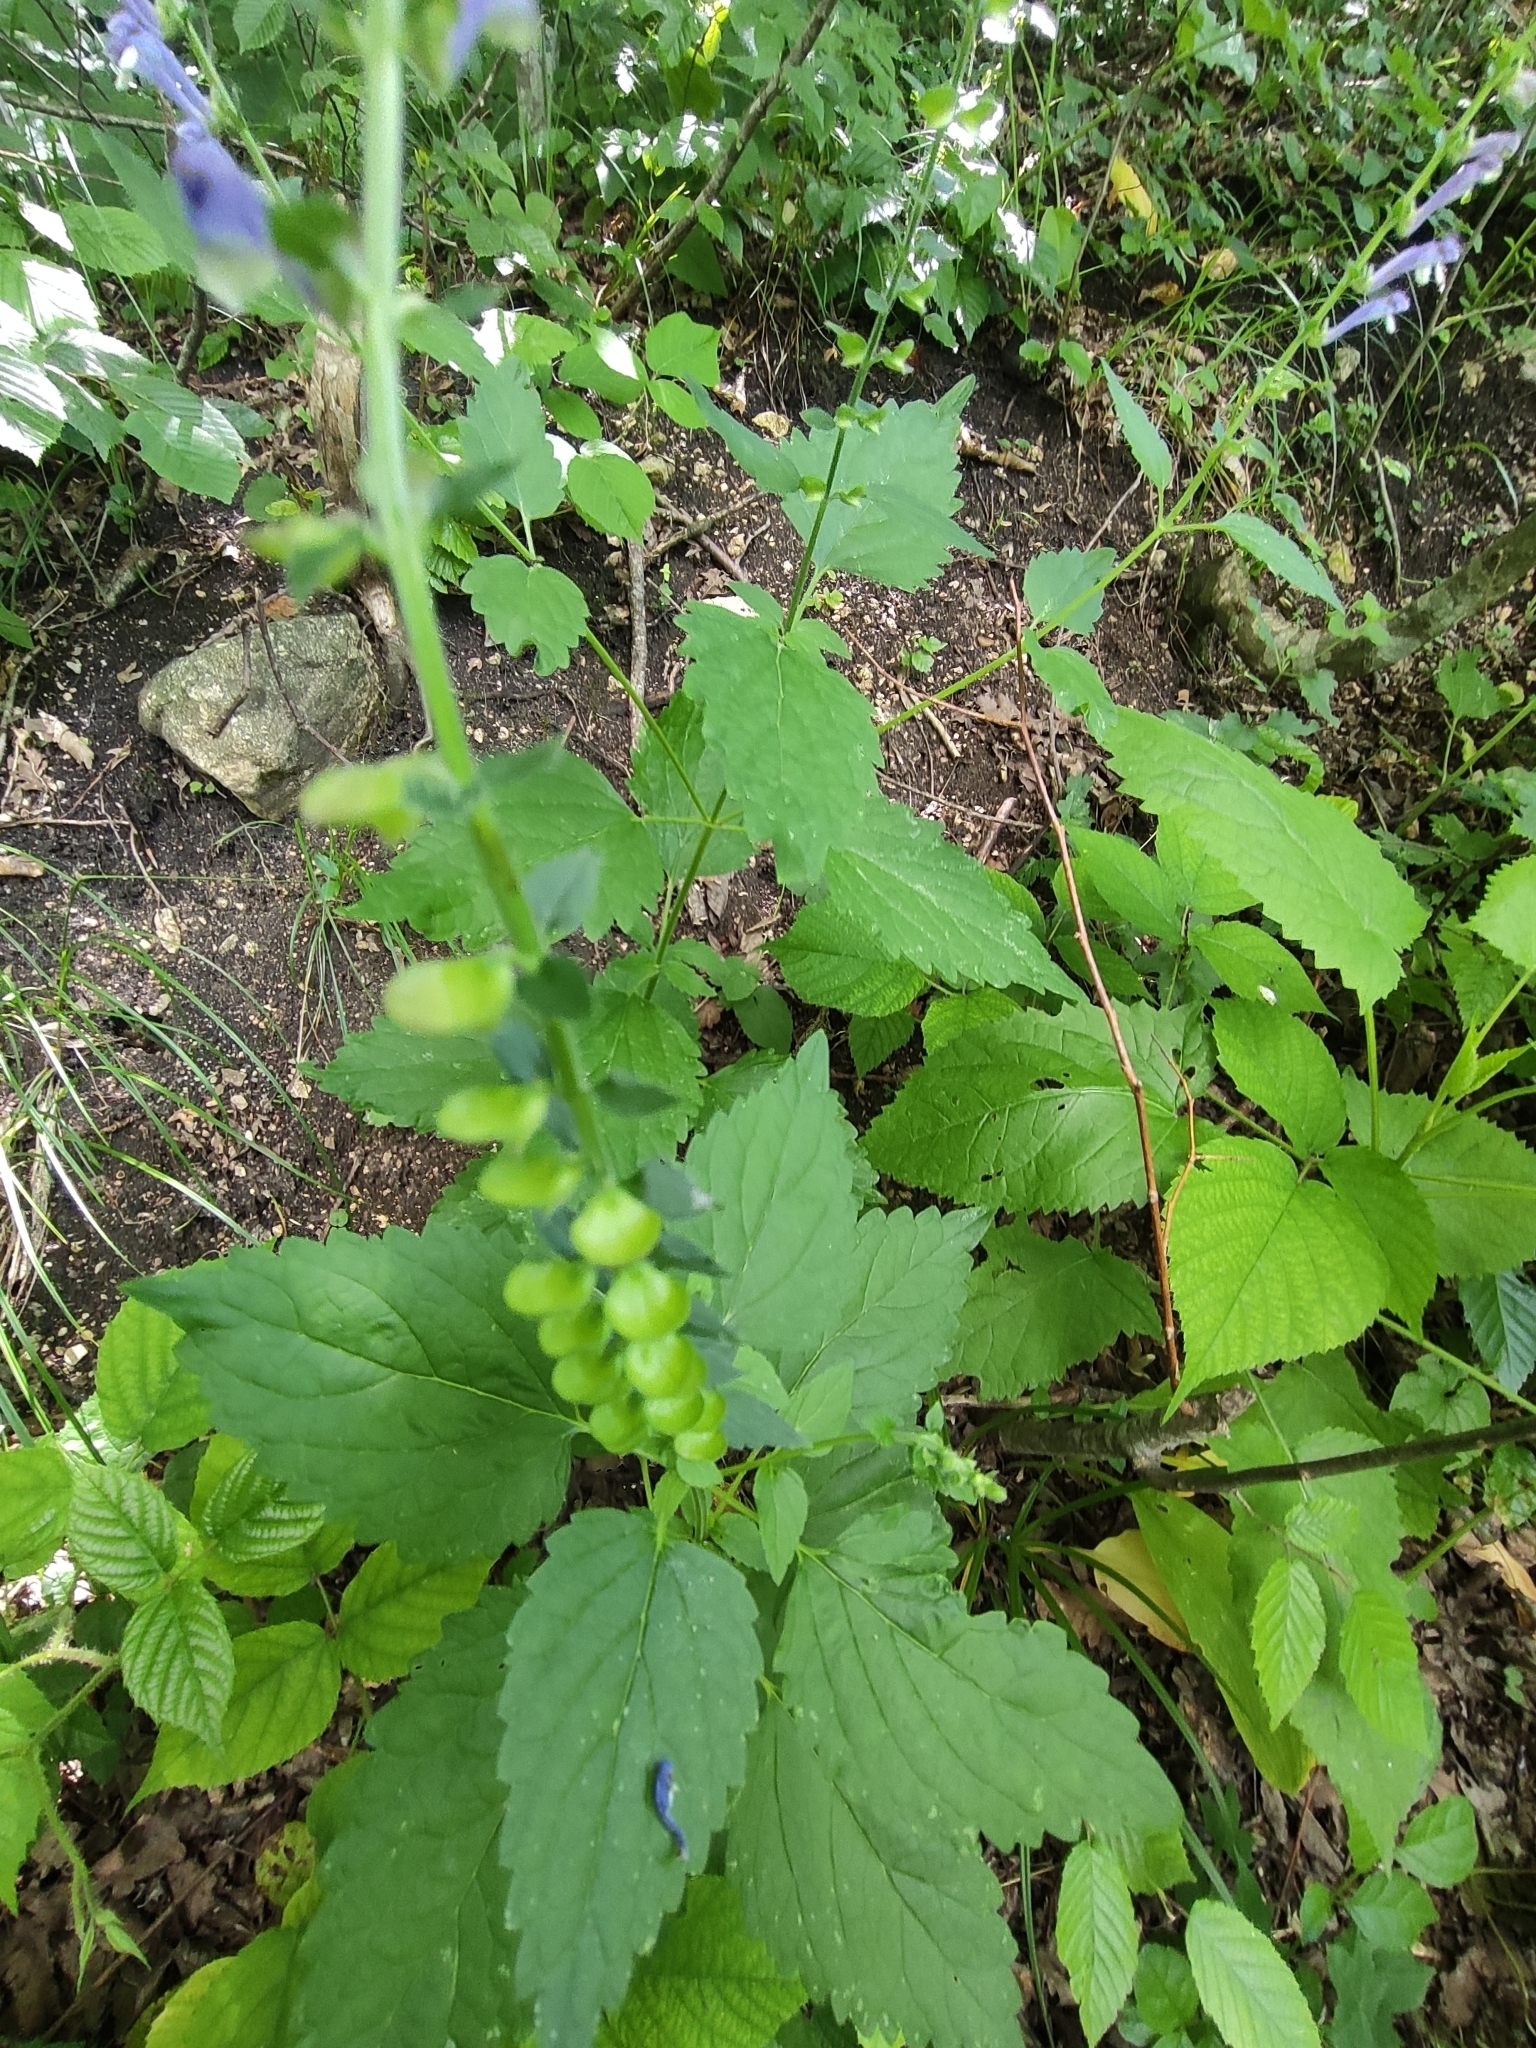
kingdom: Plantae
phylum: Tracheophyta
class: Magnoliopsida
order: Lamiales
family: Lamiaceae
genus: Scutellaria
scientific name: Scutellaria altissima
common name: Somerset skullcap
